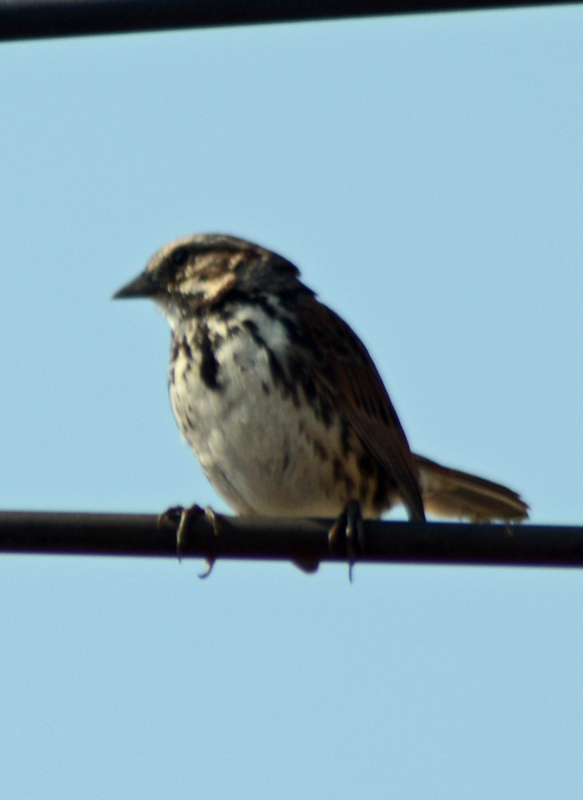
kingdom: Animalia
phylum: Chordata
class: Aves
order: Passeriformes
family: Passerellidae
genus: Melospiza
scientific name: Melospiza melodia
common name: Song sparrow
